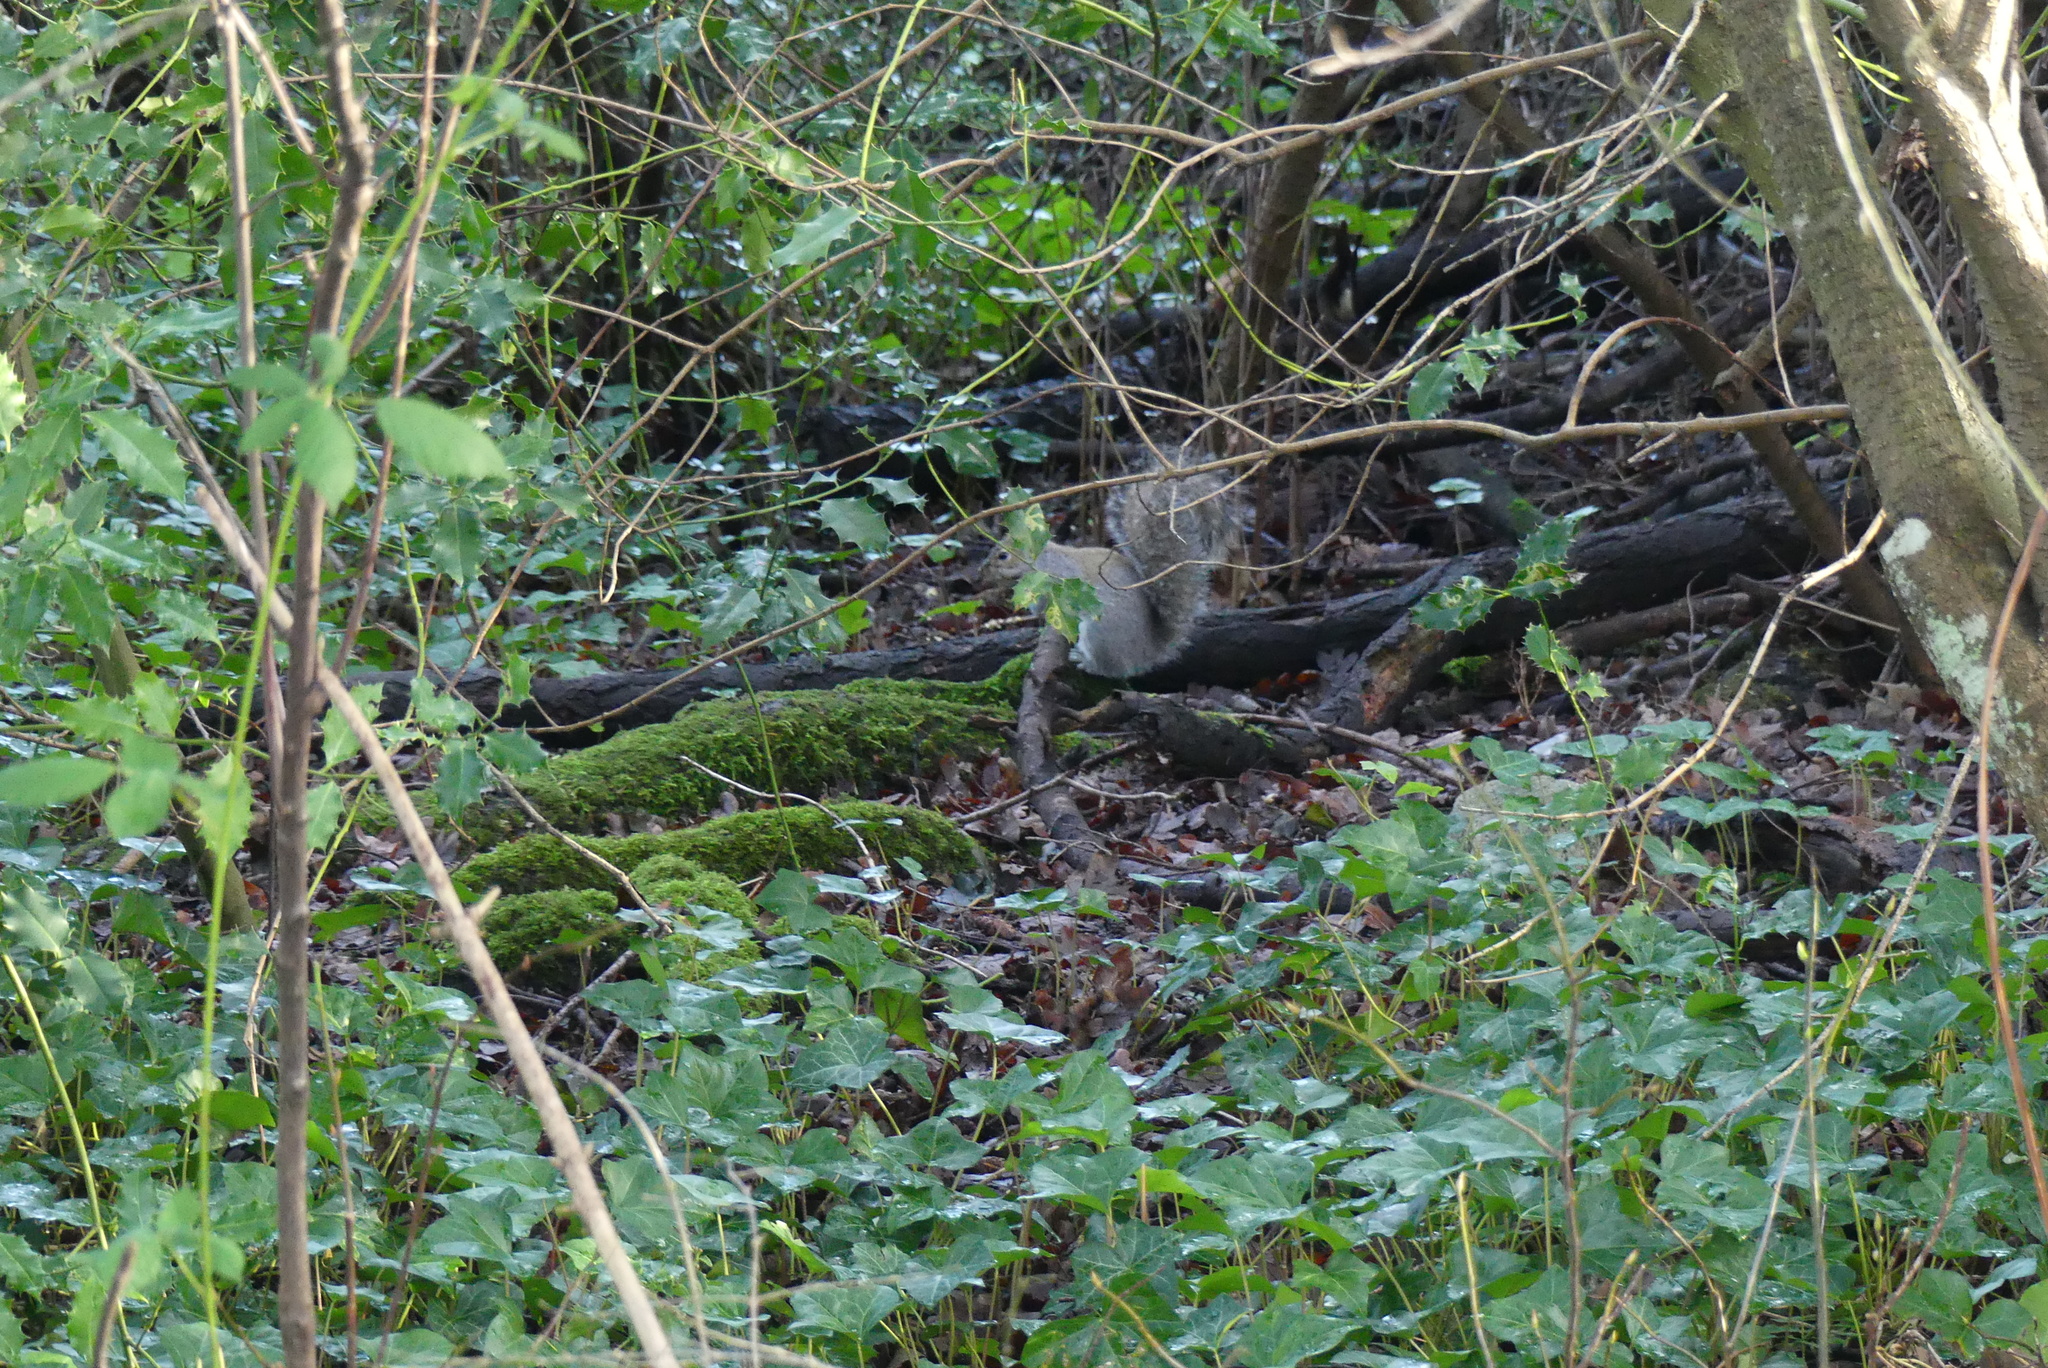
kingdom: Animalia
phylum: Chordata
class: Mammalia
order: Rodentia
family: Sciuridae
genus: Sciurus
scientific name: Sciurus carolinensis
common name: Eastern gray squirrel
